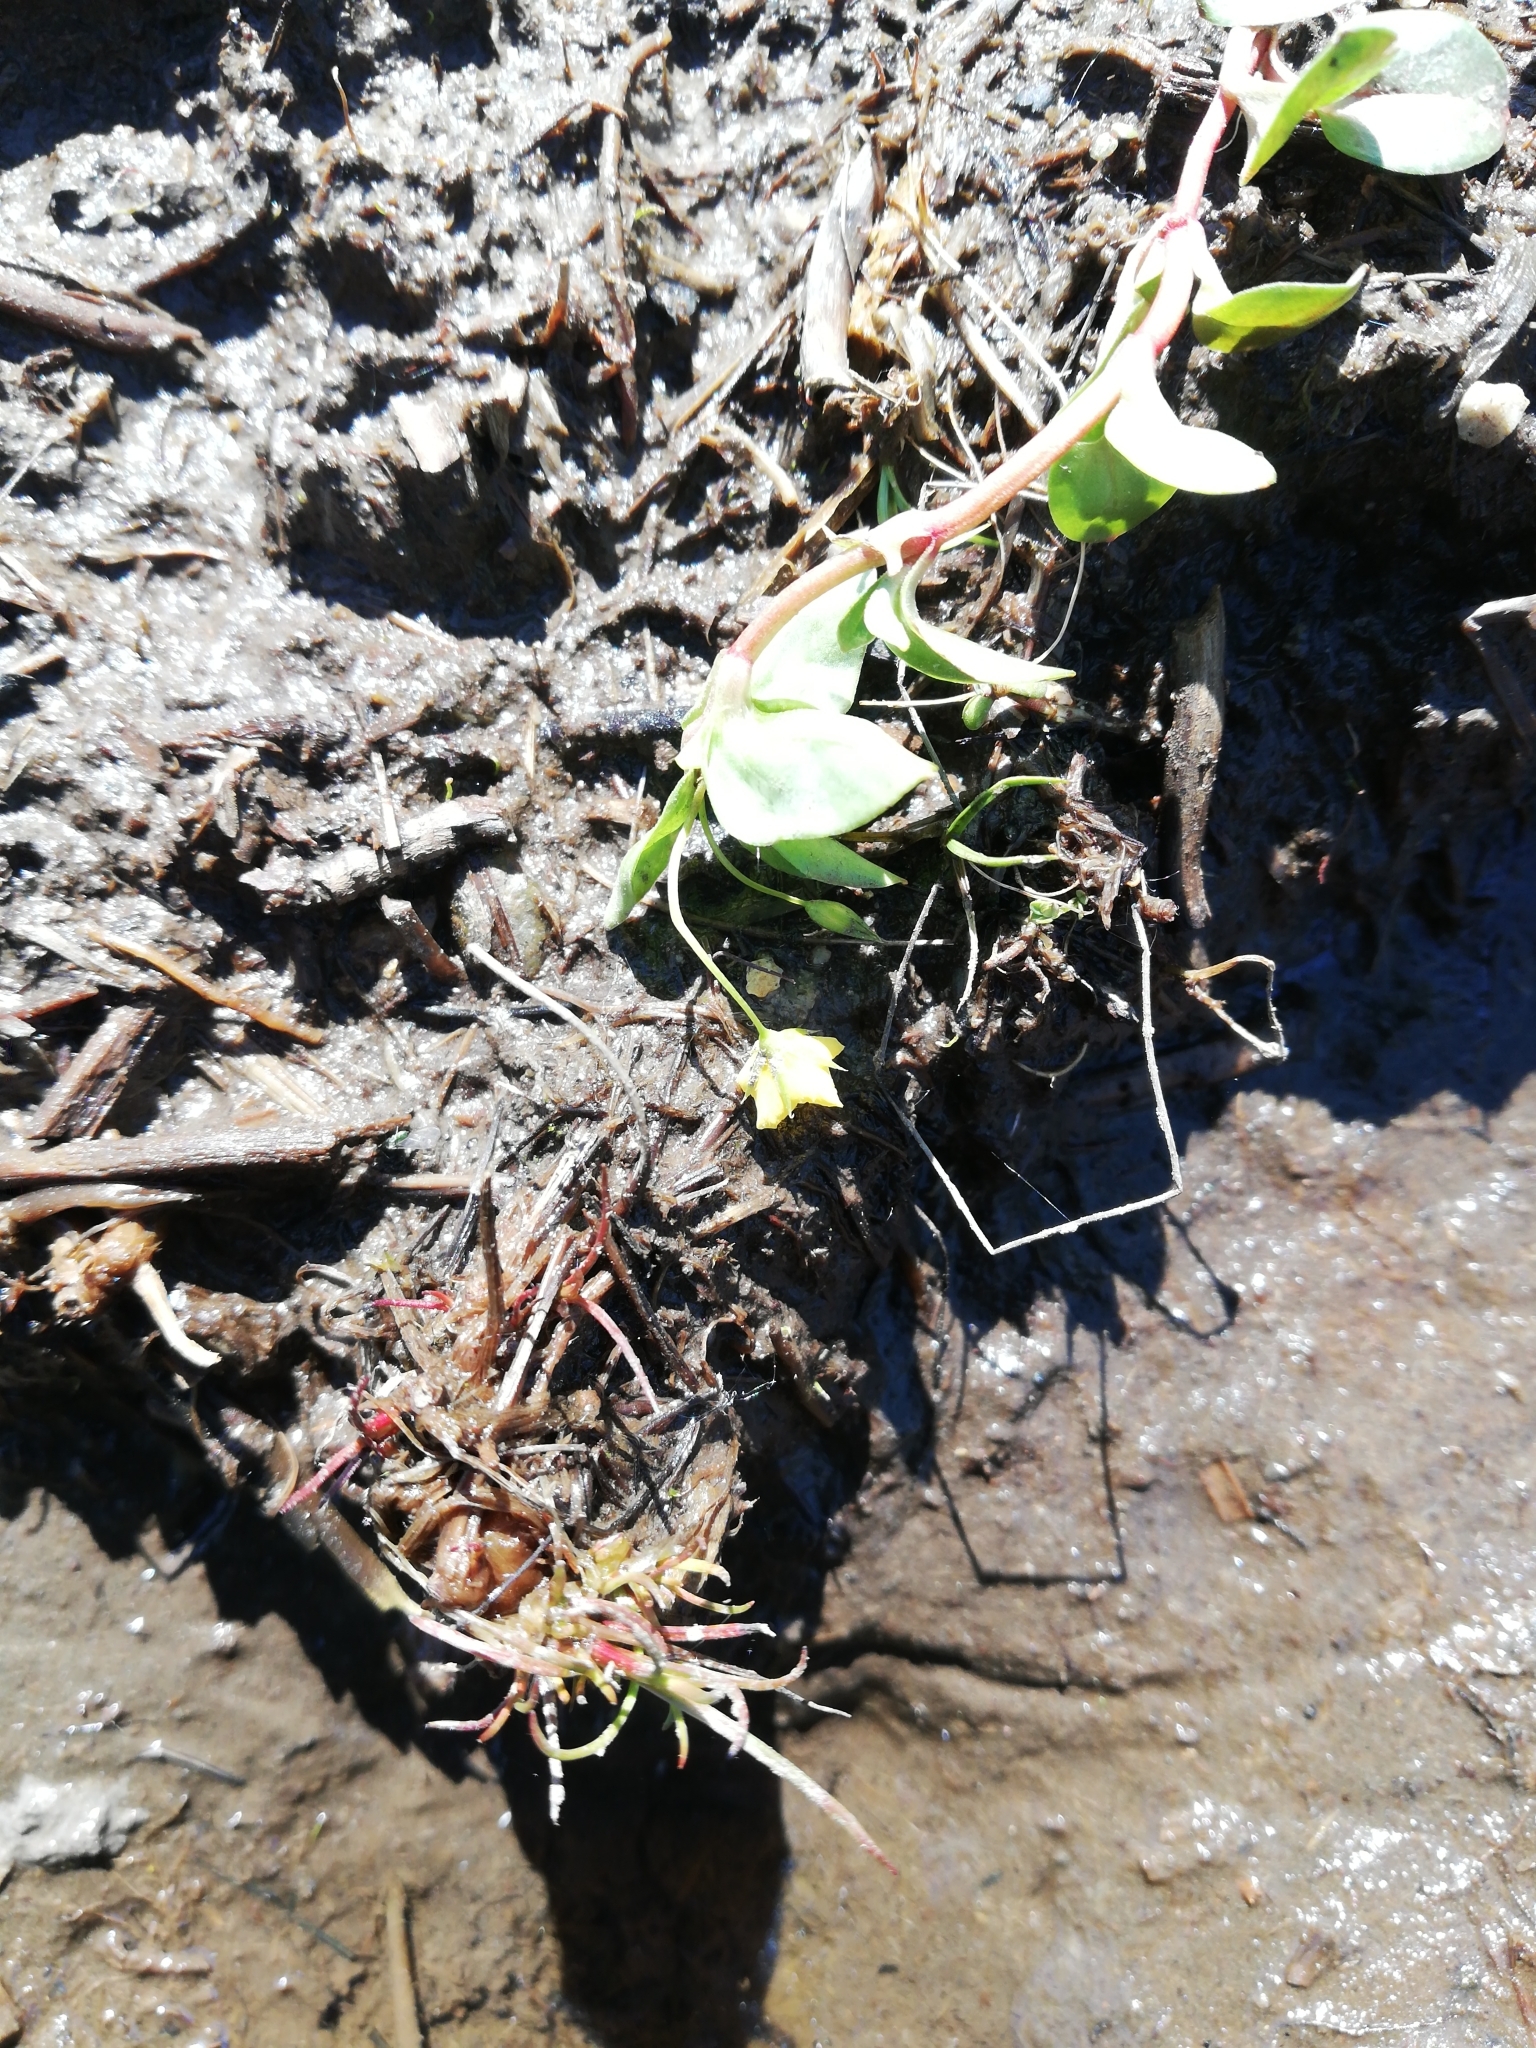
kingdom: Plantae
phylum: Tracheophyta
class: Magnoliopsida
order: Ericales
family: Primulaceae
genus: Lysimachia
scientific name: Lysimachia nemorum
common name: Yellow pimpernel
